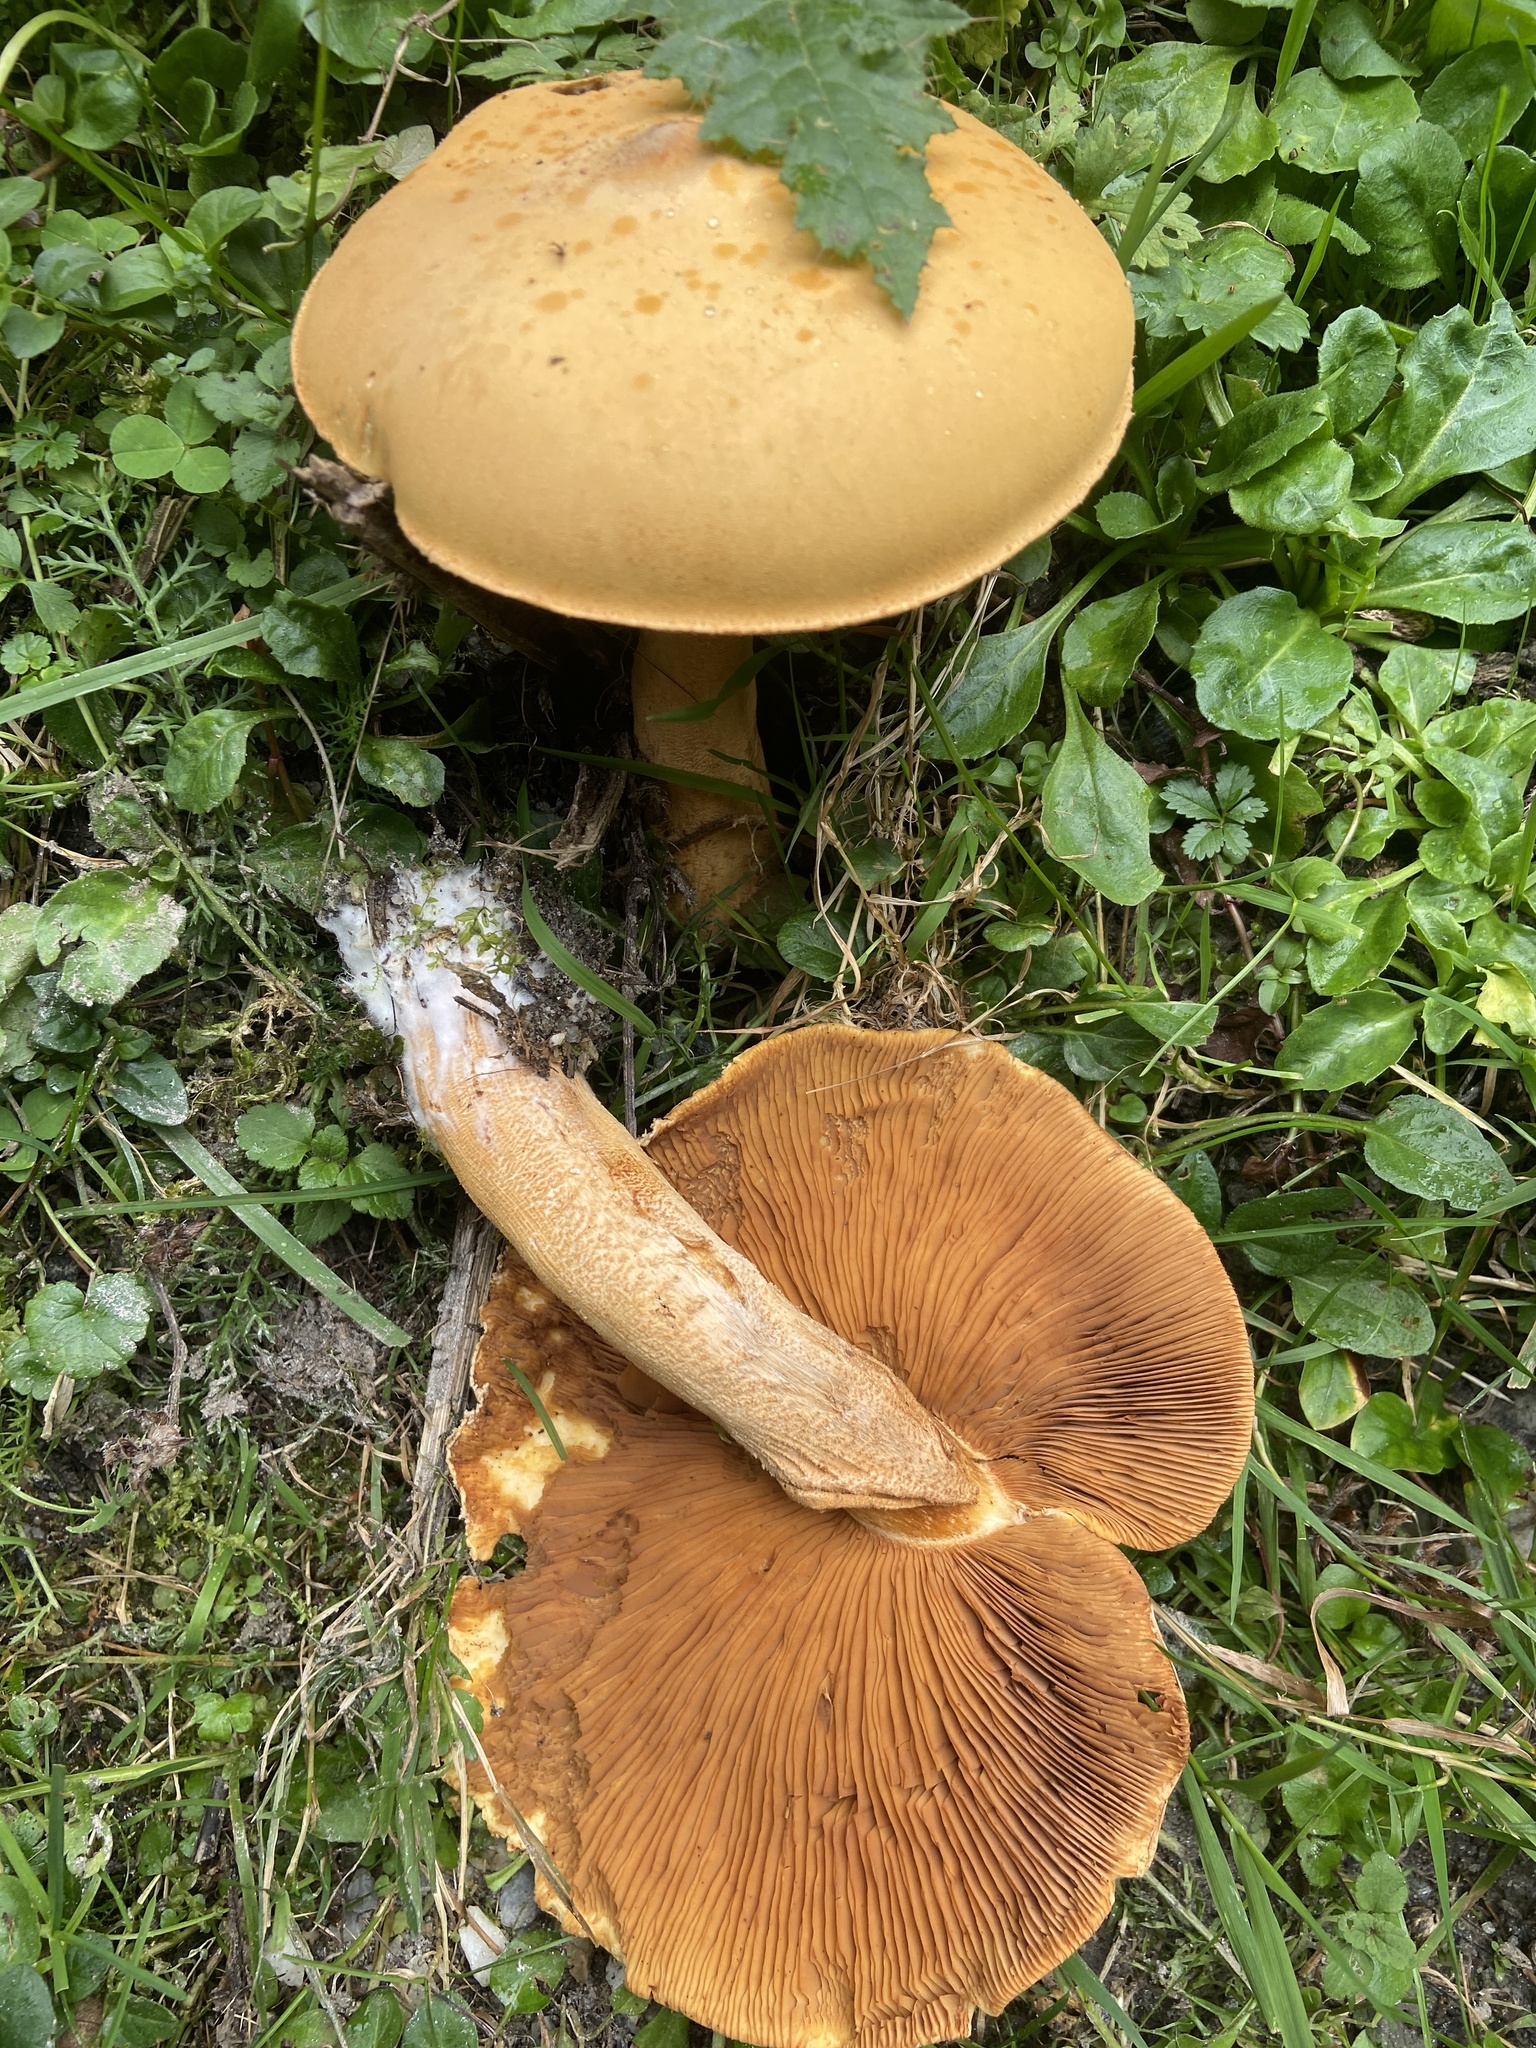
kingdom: Fungi
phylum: Basidiomycota
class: Agaricomycetes
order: Agaricales
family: Tricholomataceae
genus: Phaeolepiota
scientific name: Phaeolepiota aurea
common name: Golden bootleg
